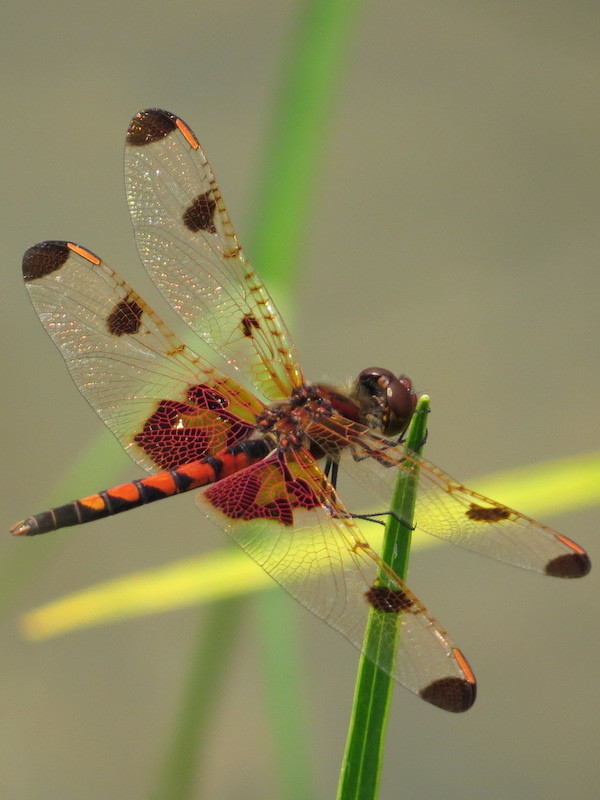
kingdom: Animalia
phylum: Arthropoda
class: Insecta
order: Odonata
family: Libellulidae
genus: Celithemis
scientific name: Celithemis elisa
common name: Calico pennant
